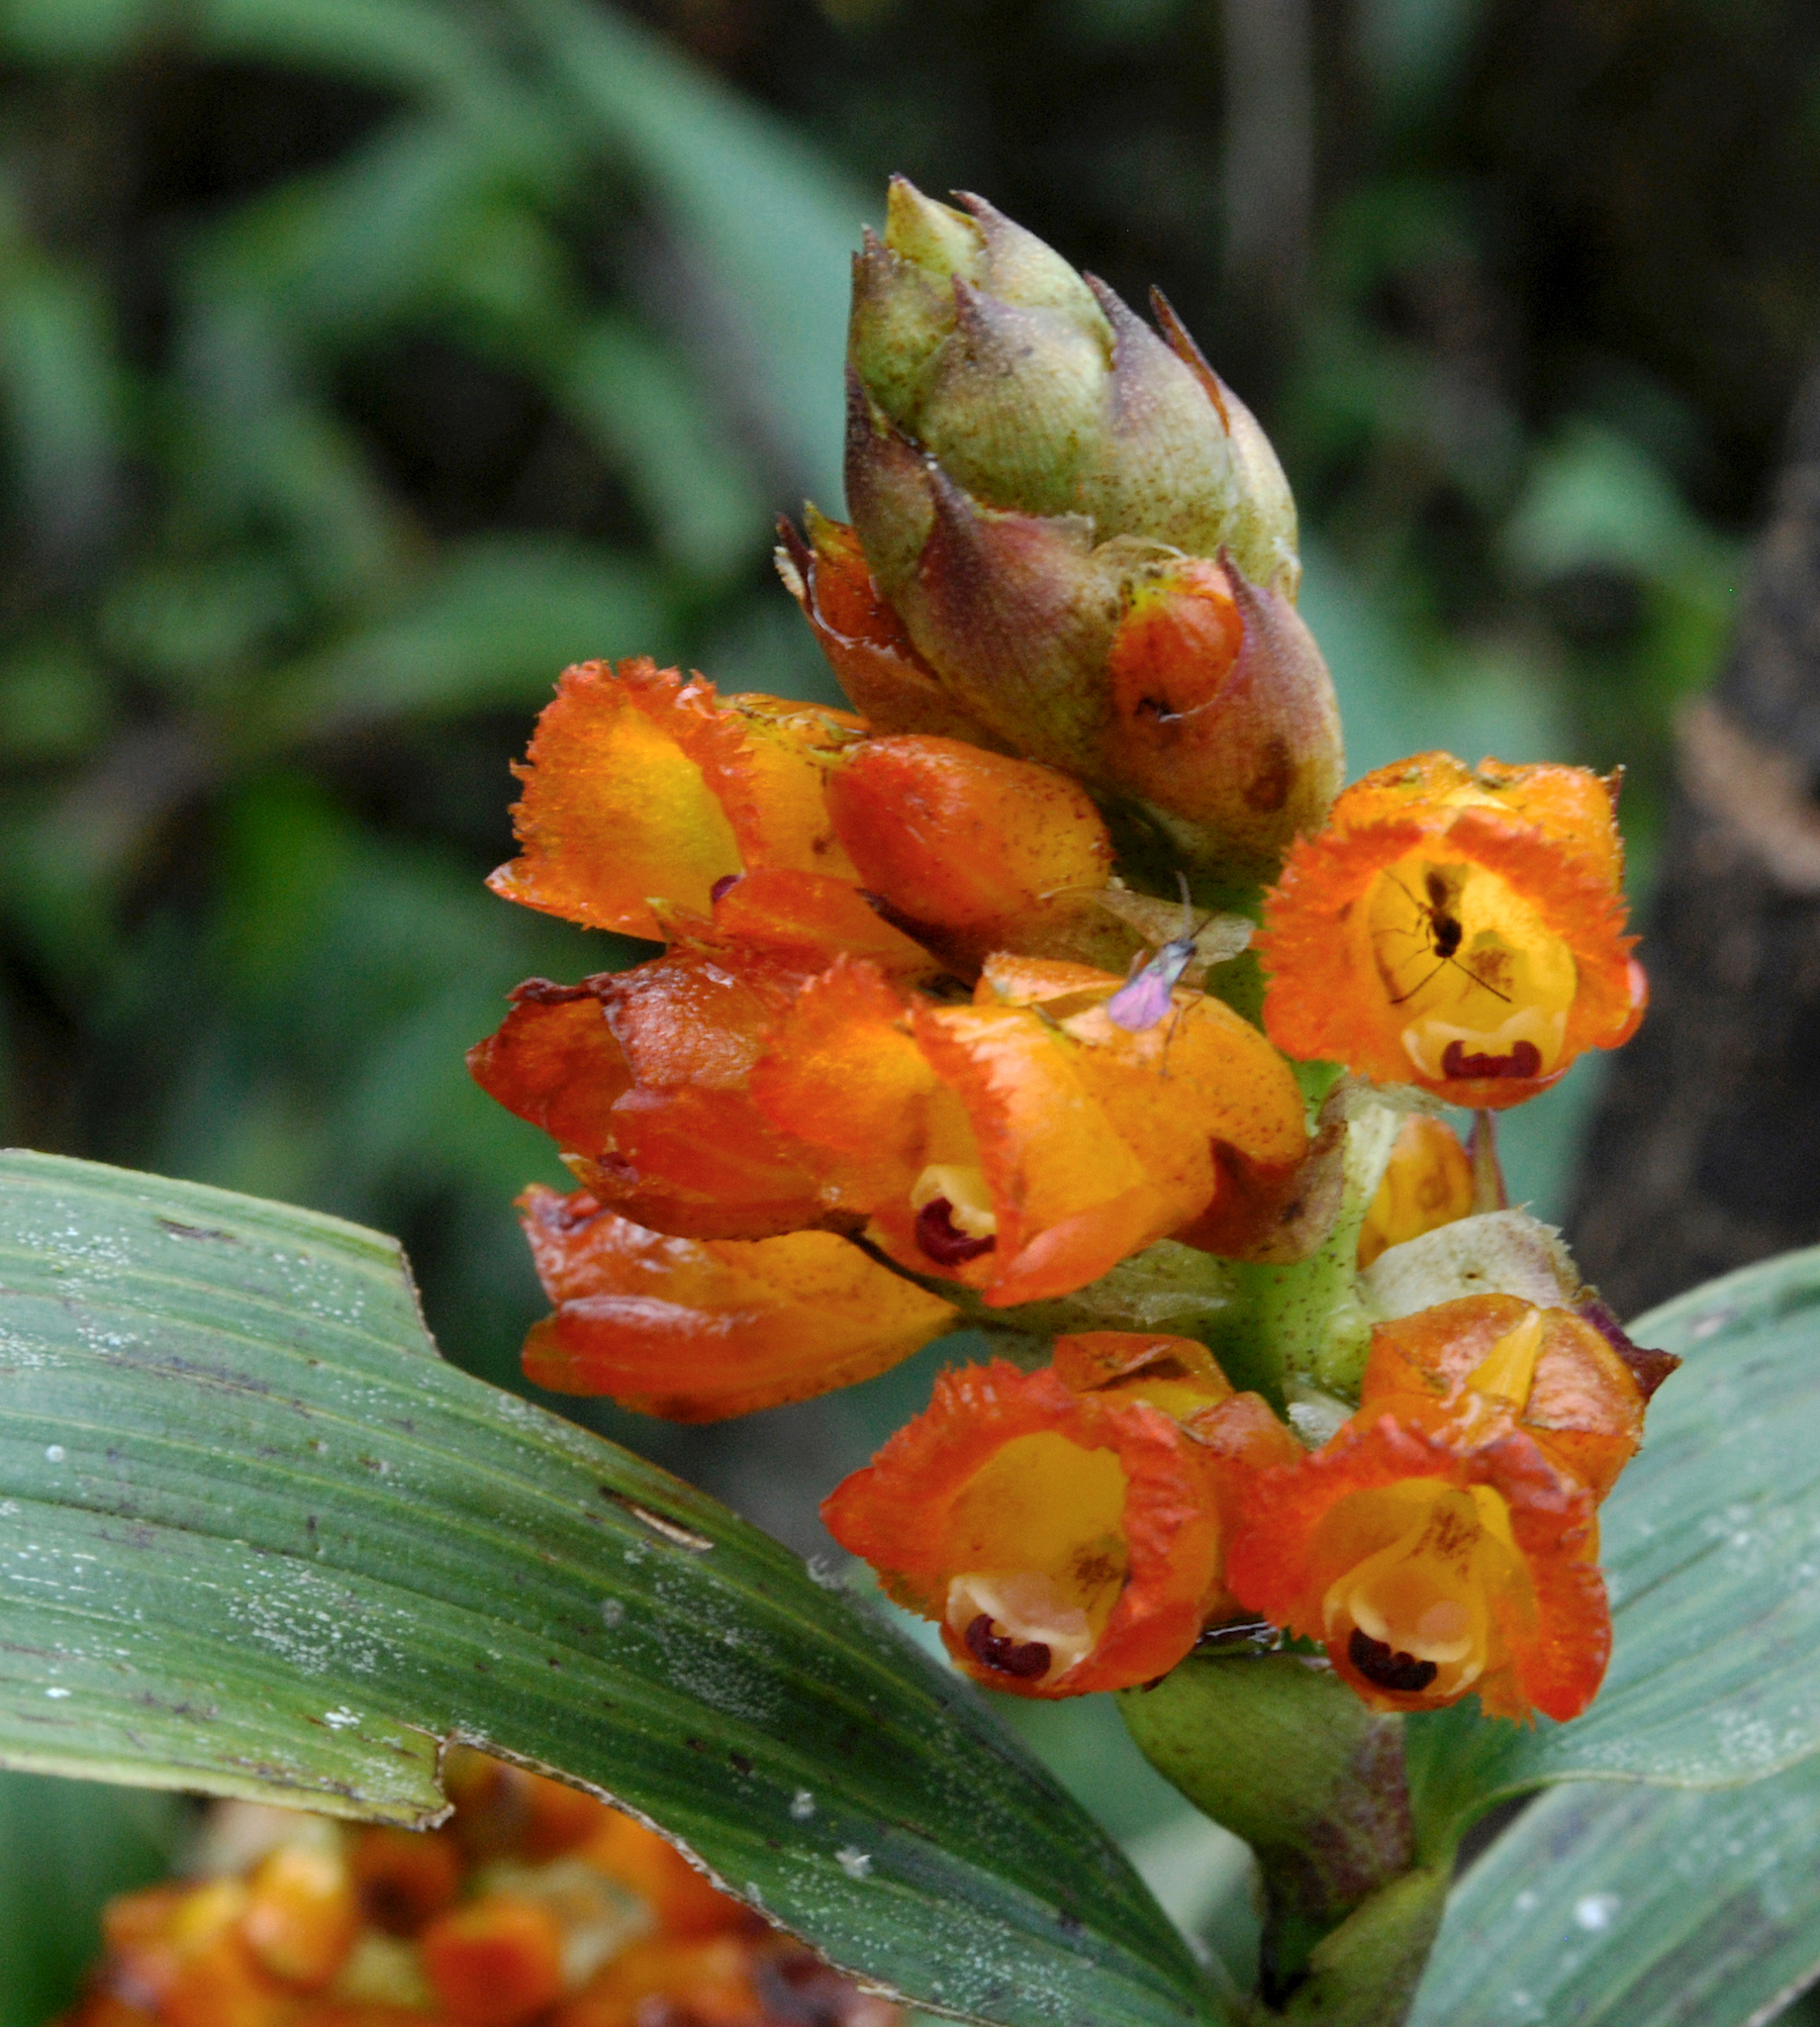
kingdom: Plantae
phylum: Tracheophyta
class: Liliopsida
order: Asparagales
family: Orchidaceae
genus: Elleanthus
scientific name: Elleanthus aurantiacus
